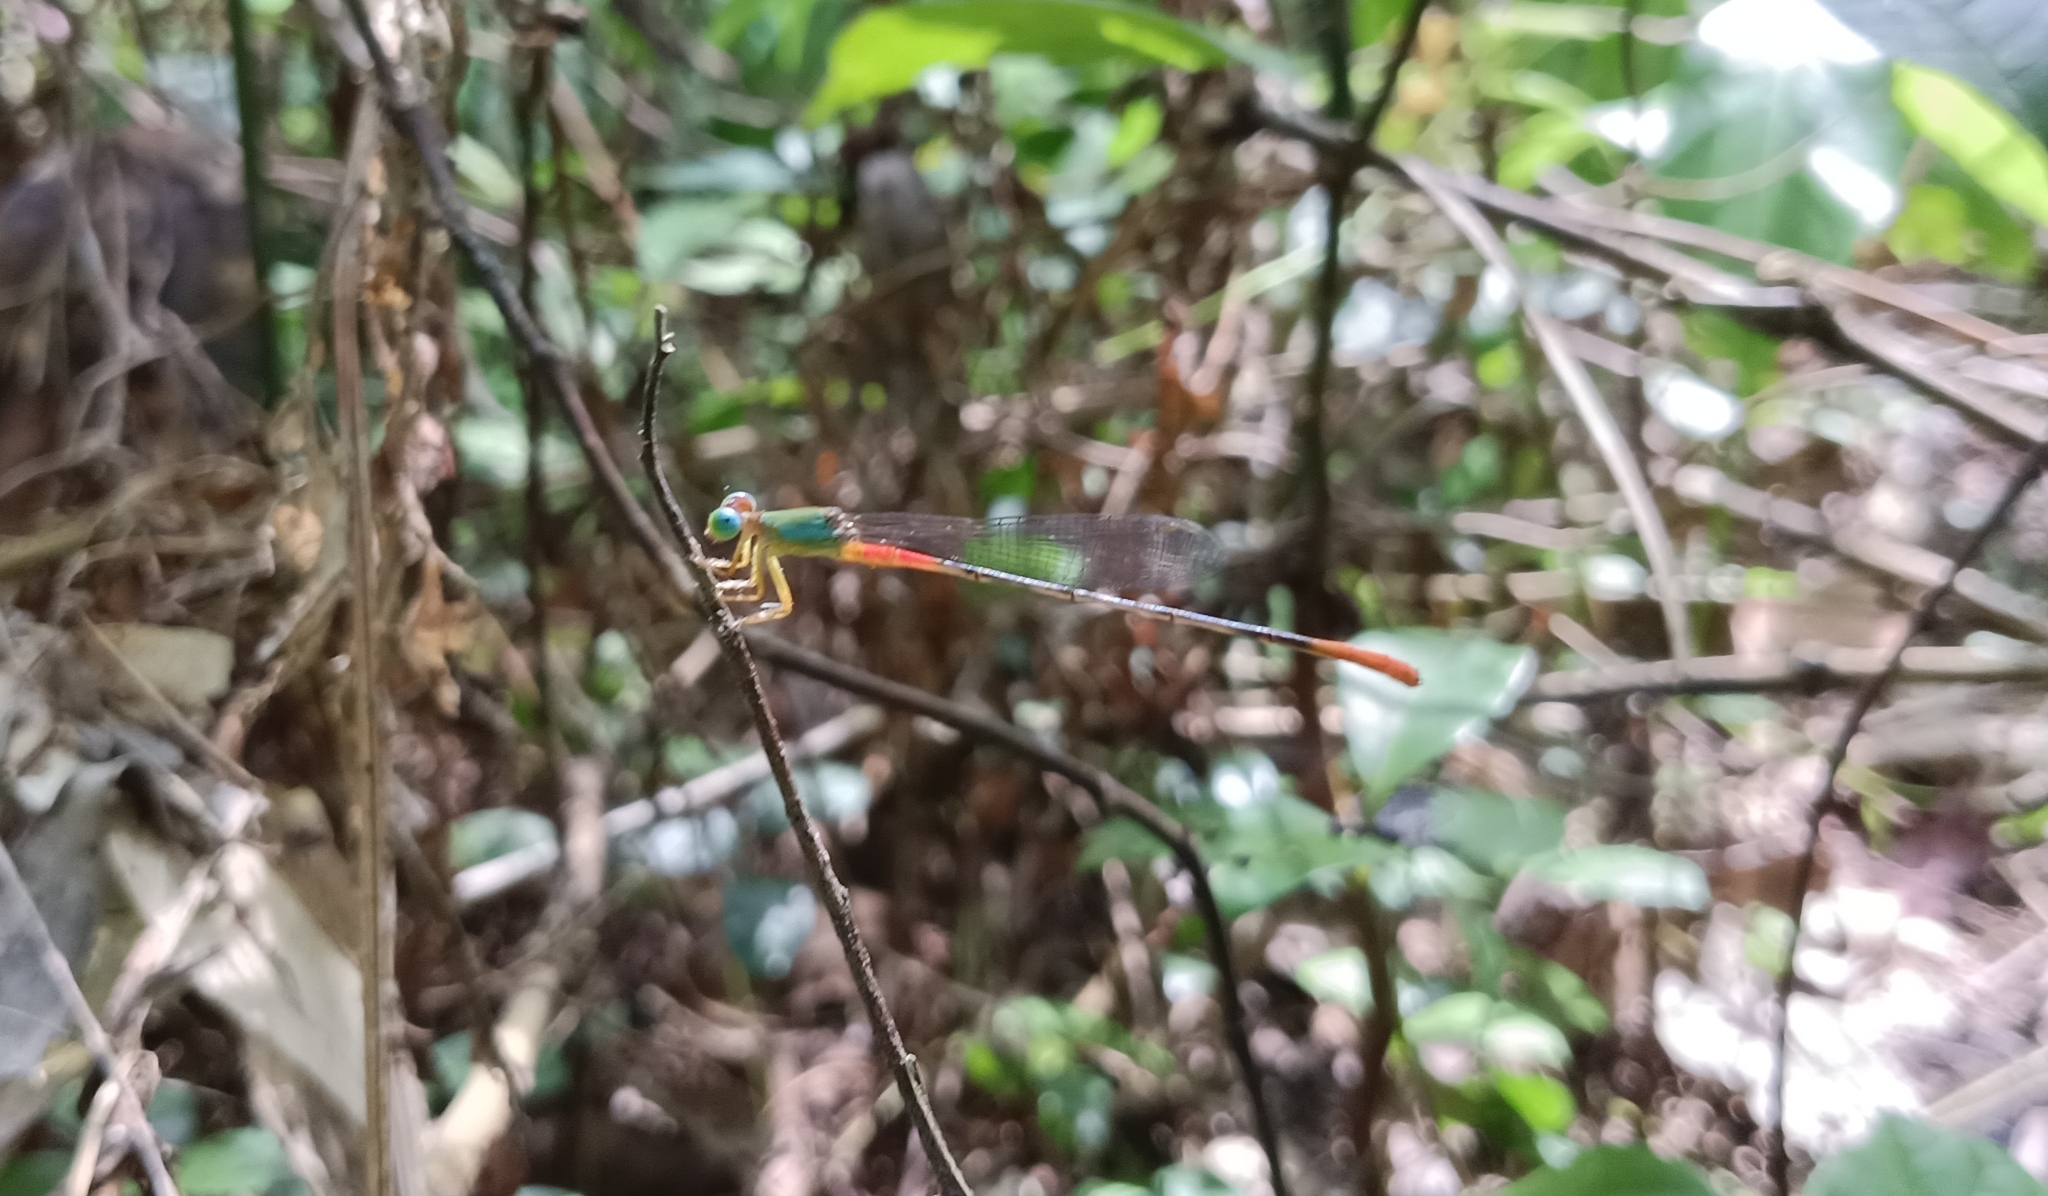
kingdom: Animalia
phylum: Arthropoda
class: Insecta
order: Odonata
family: Coenagrionidae
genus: Ceriagrion
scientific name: Ceriagrion cerinorubellum
